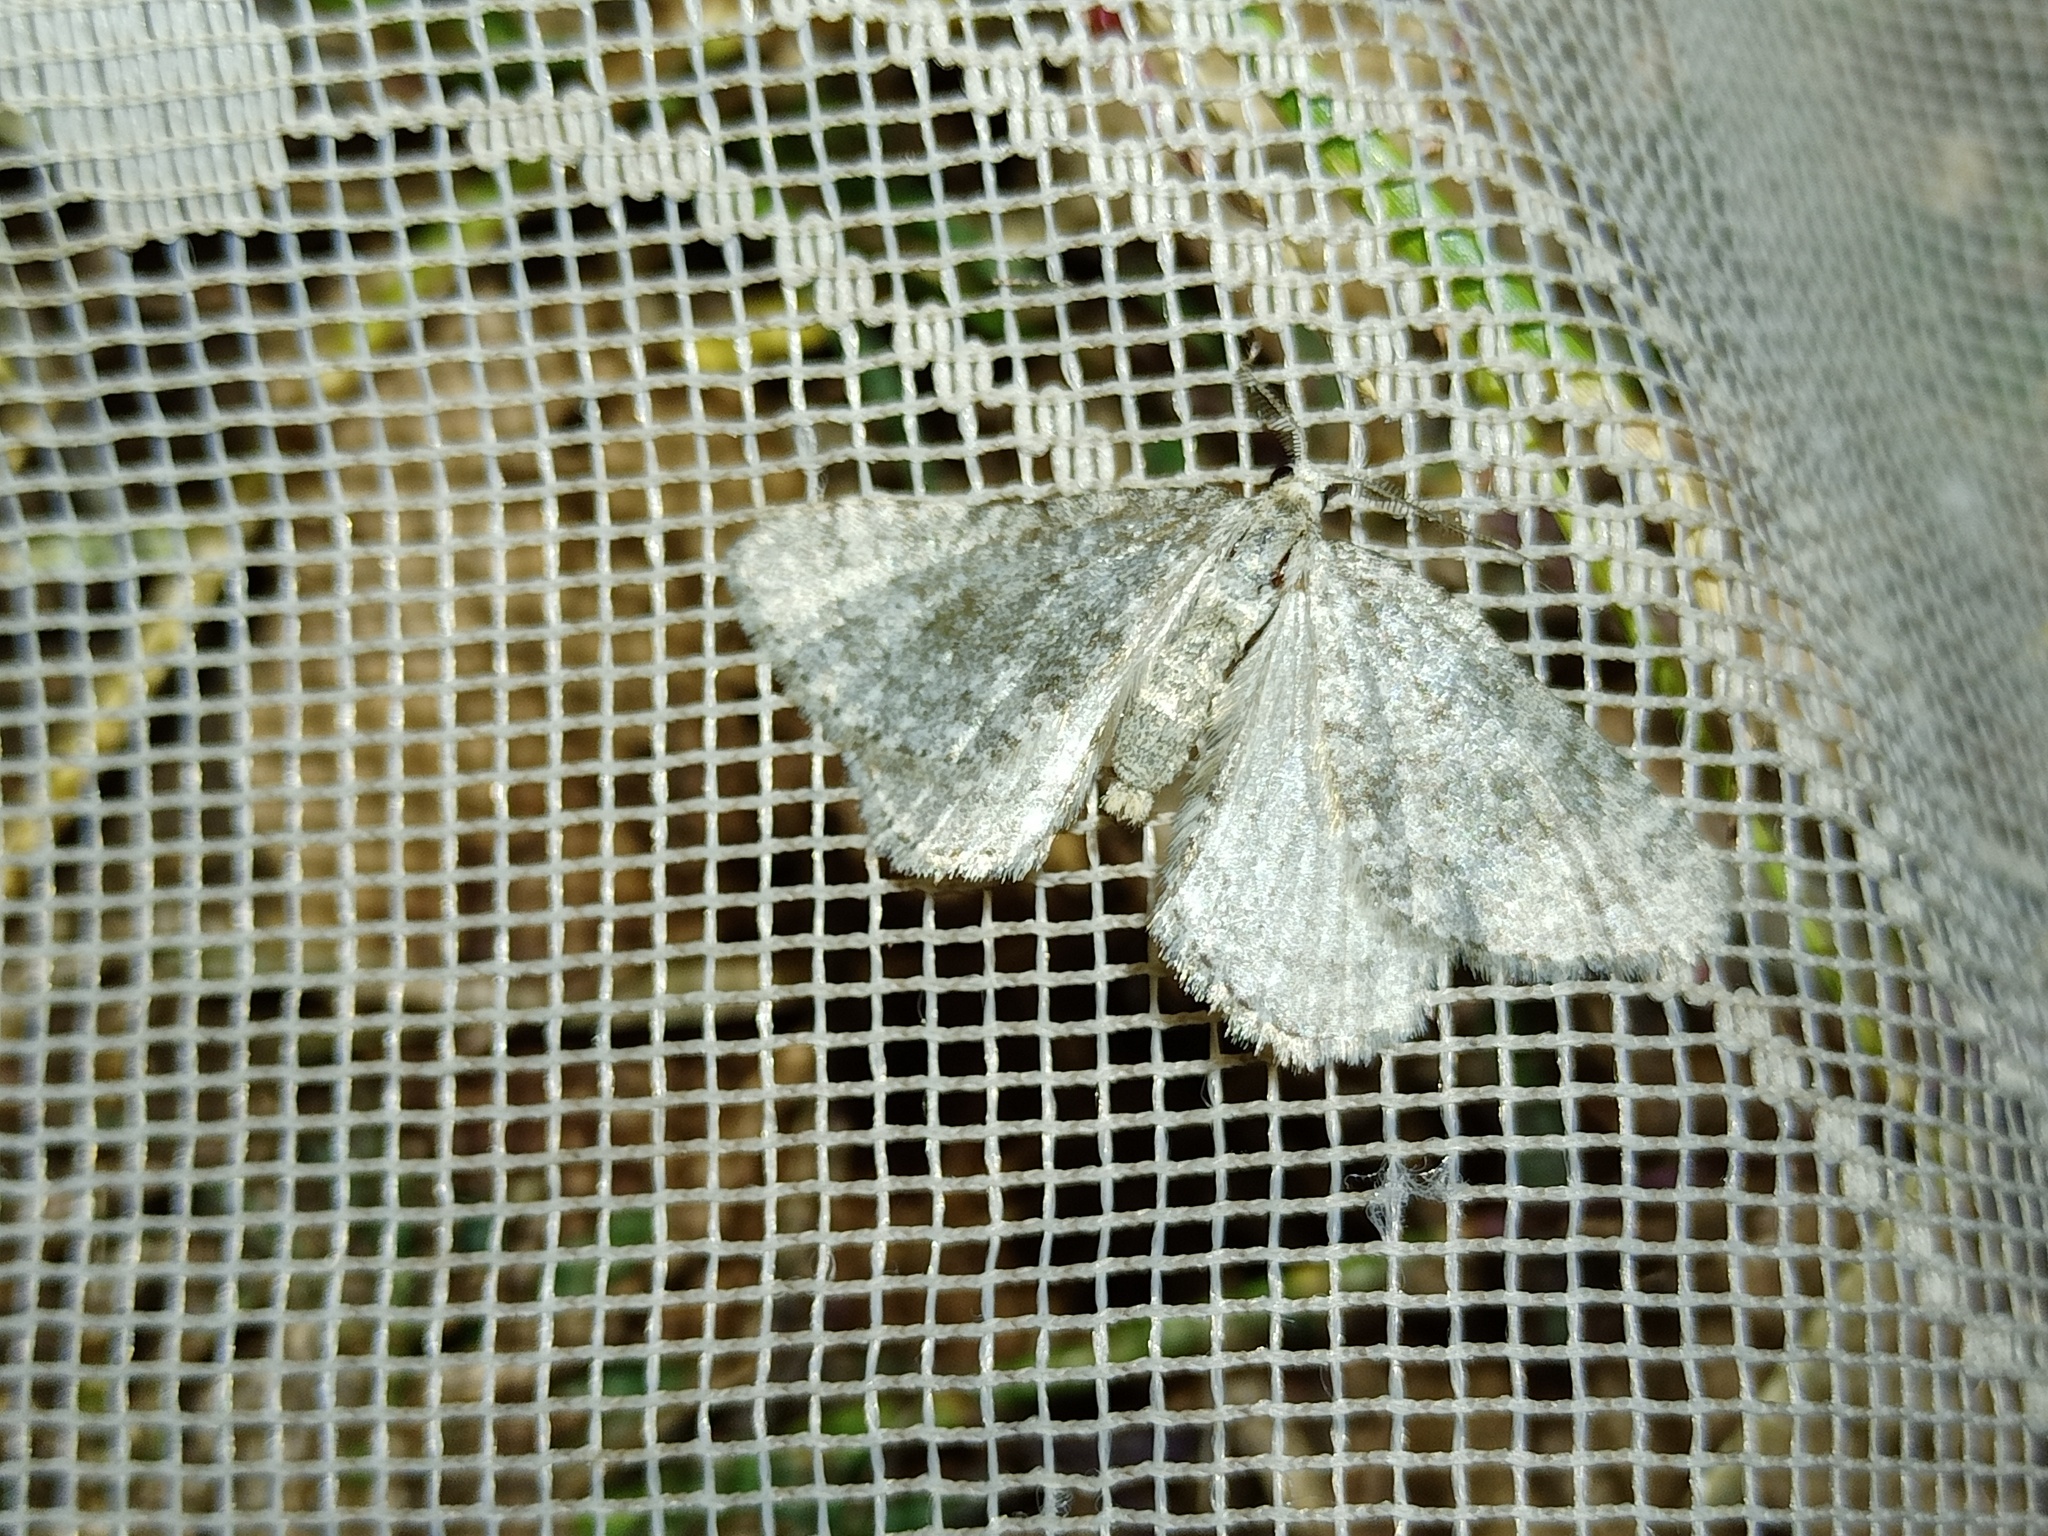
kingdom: Animalia
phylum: Arthropoda
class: Insecta
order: Lepidoptera
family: Geometridae
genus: Colostygia
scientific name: Colostygia sericeata
